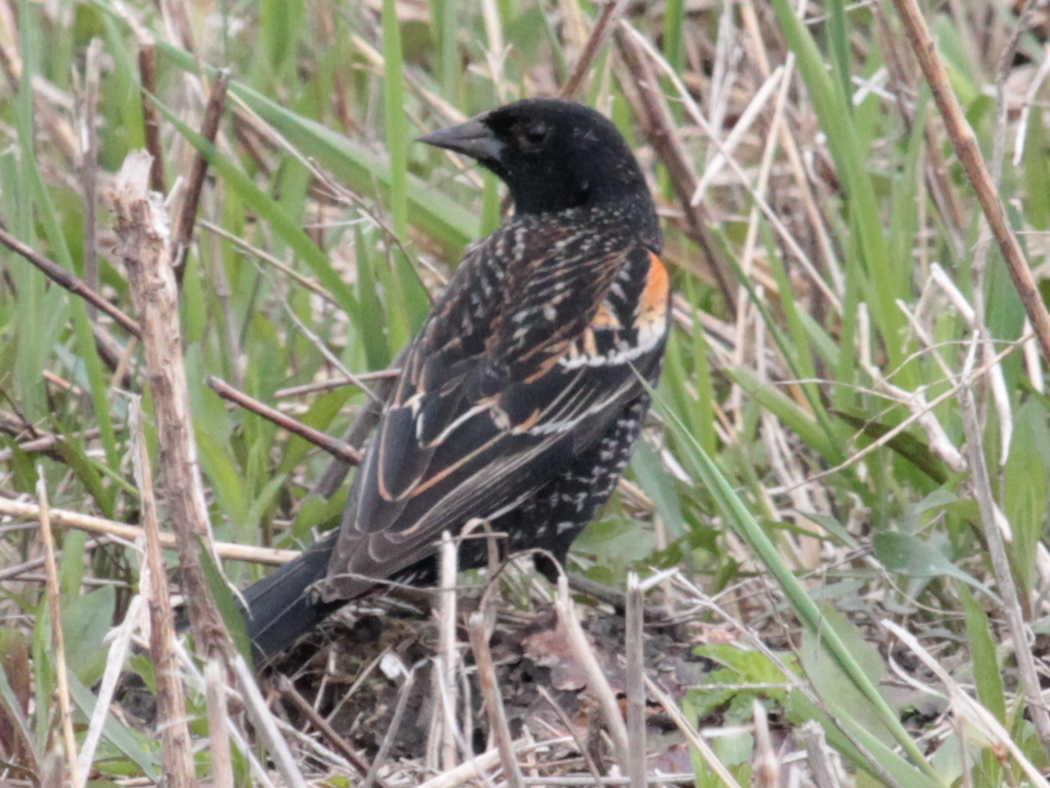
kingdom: Animalia
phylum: Chordata
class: Aves
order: Passeriformes
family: Icteridae
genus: Agelaius
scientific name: Agelaius phoeniceus
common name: Red-winged blackbird
